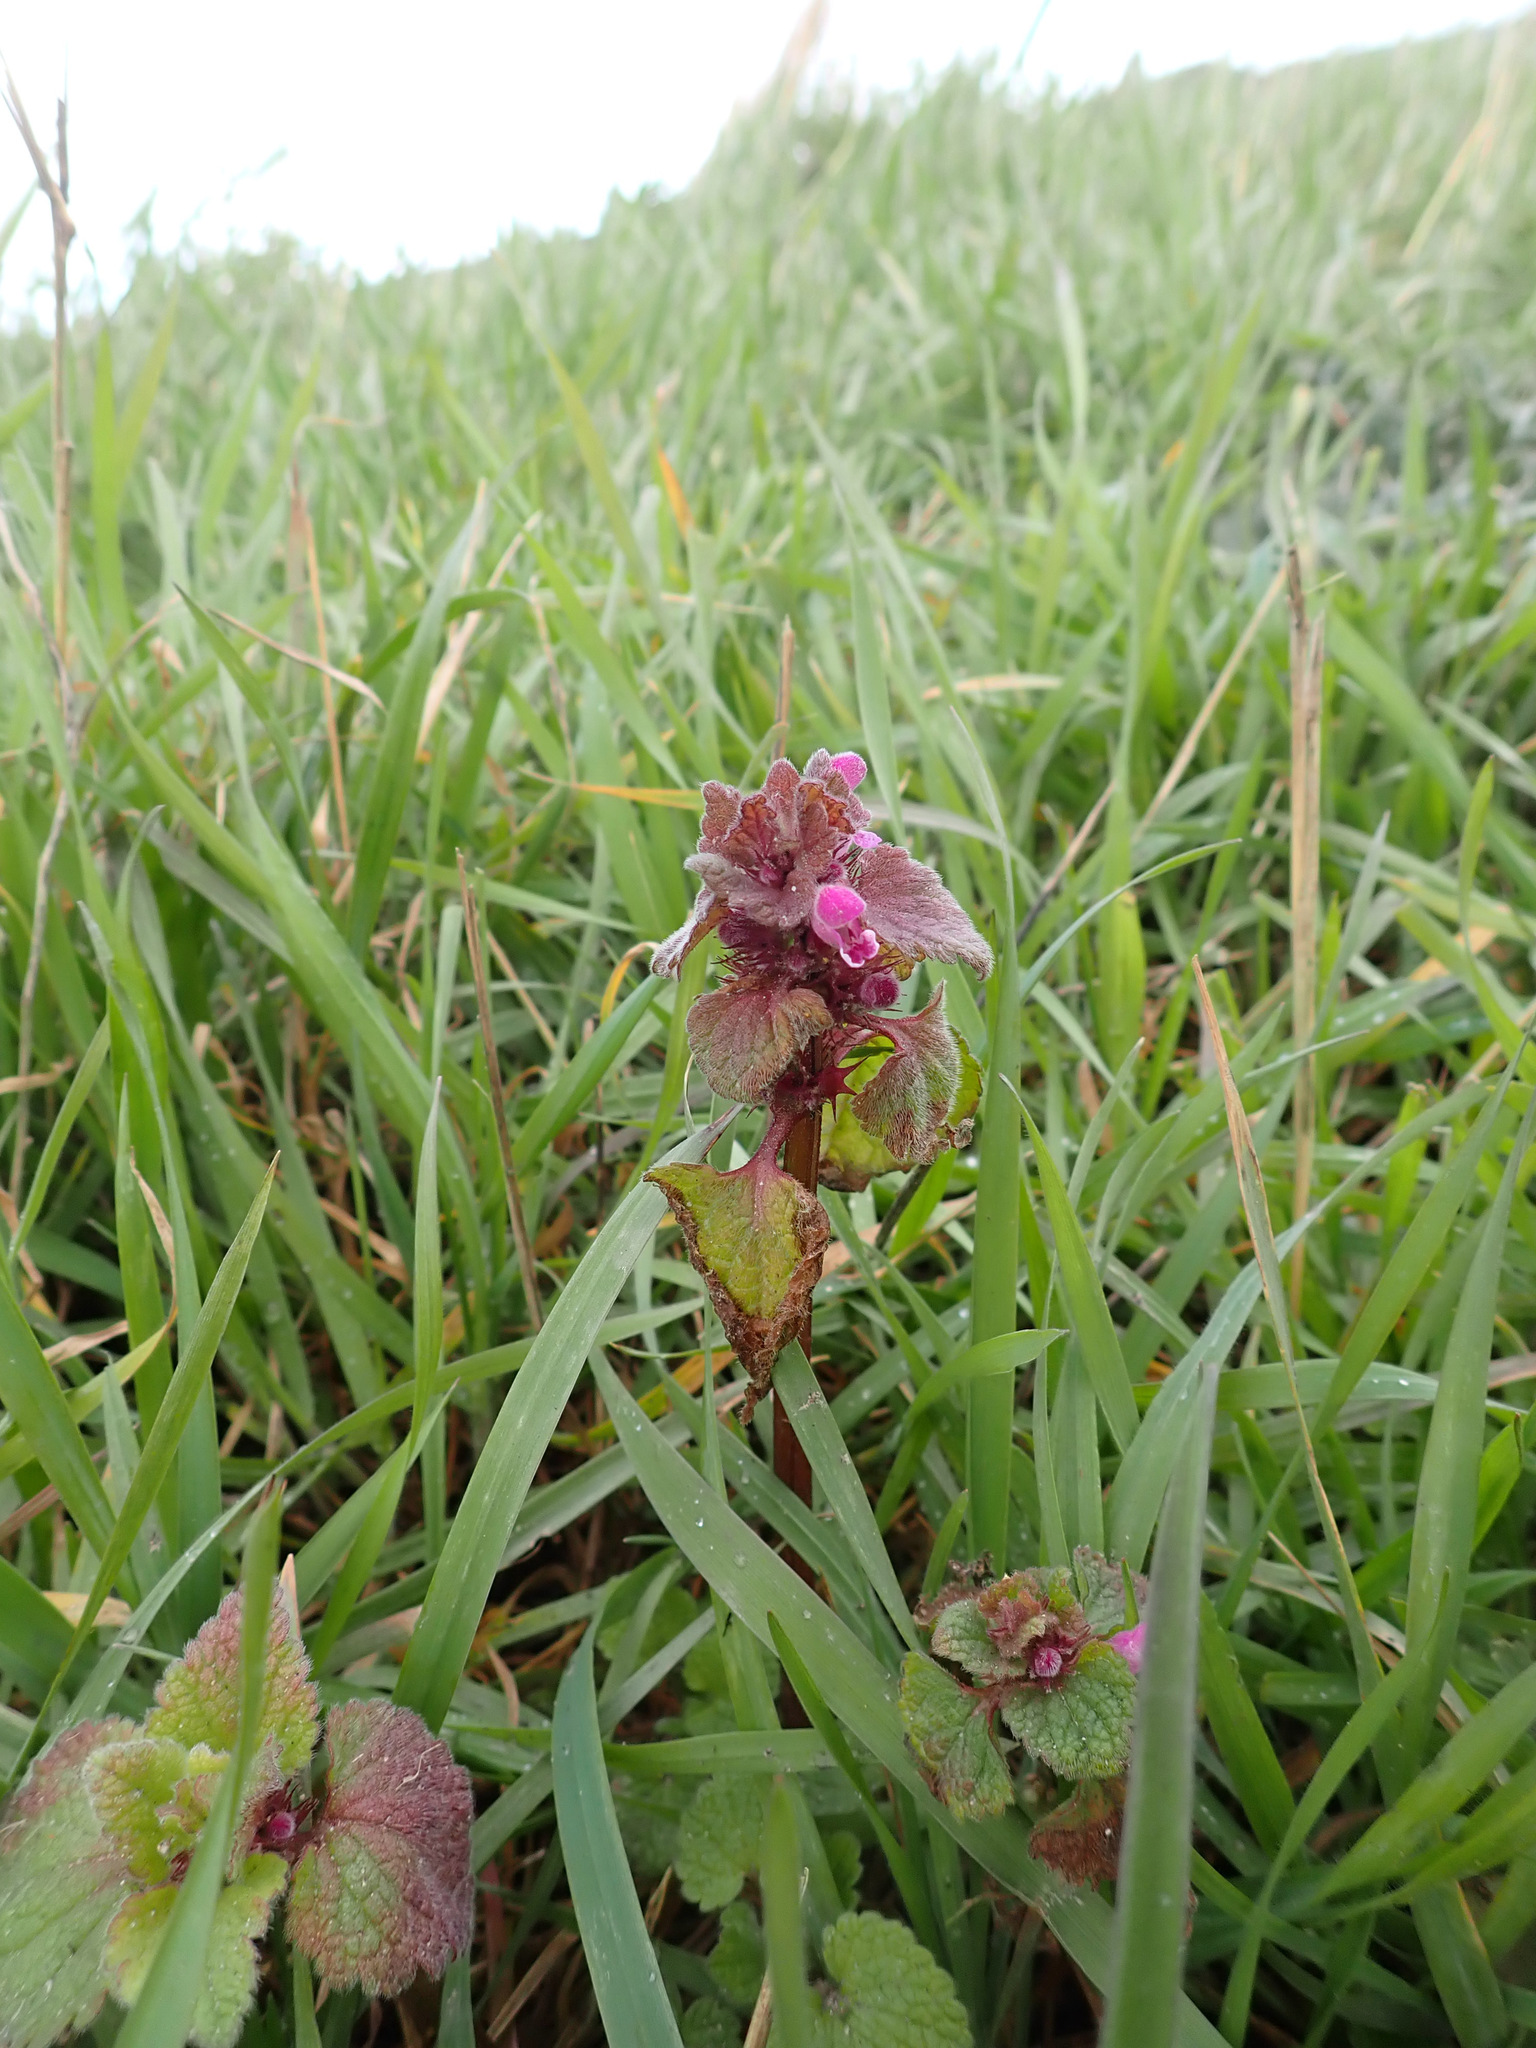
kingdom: Plantae
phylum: Tracheophyta
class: Magnoliopsida
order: Lamiales
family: Lamiaceae
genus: Lamium
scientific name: Lamium purpureum
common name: Red dead-nettle
